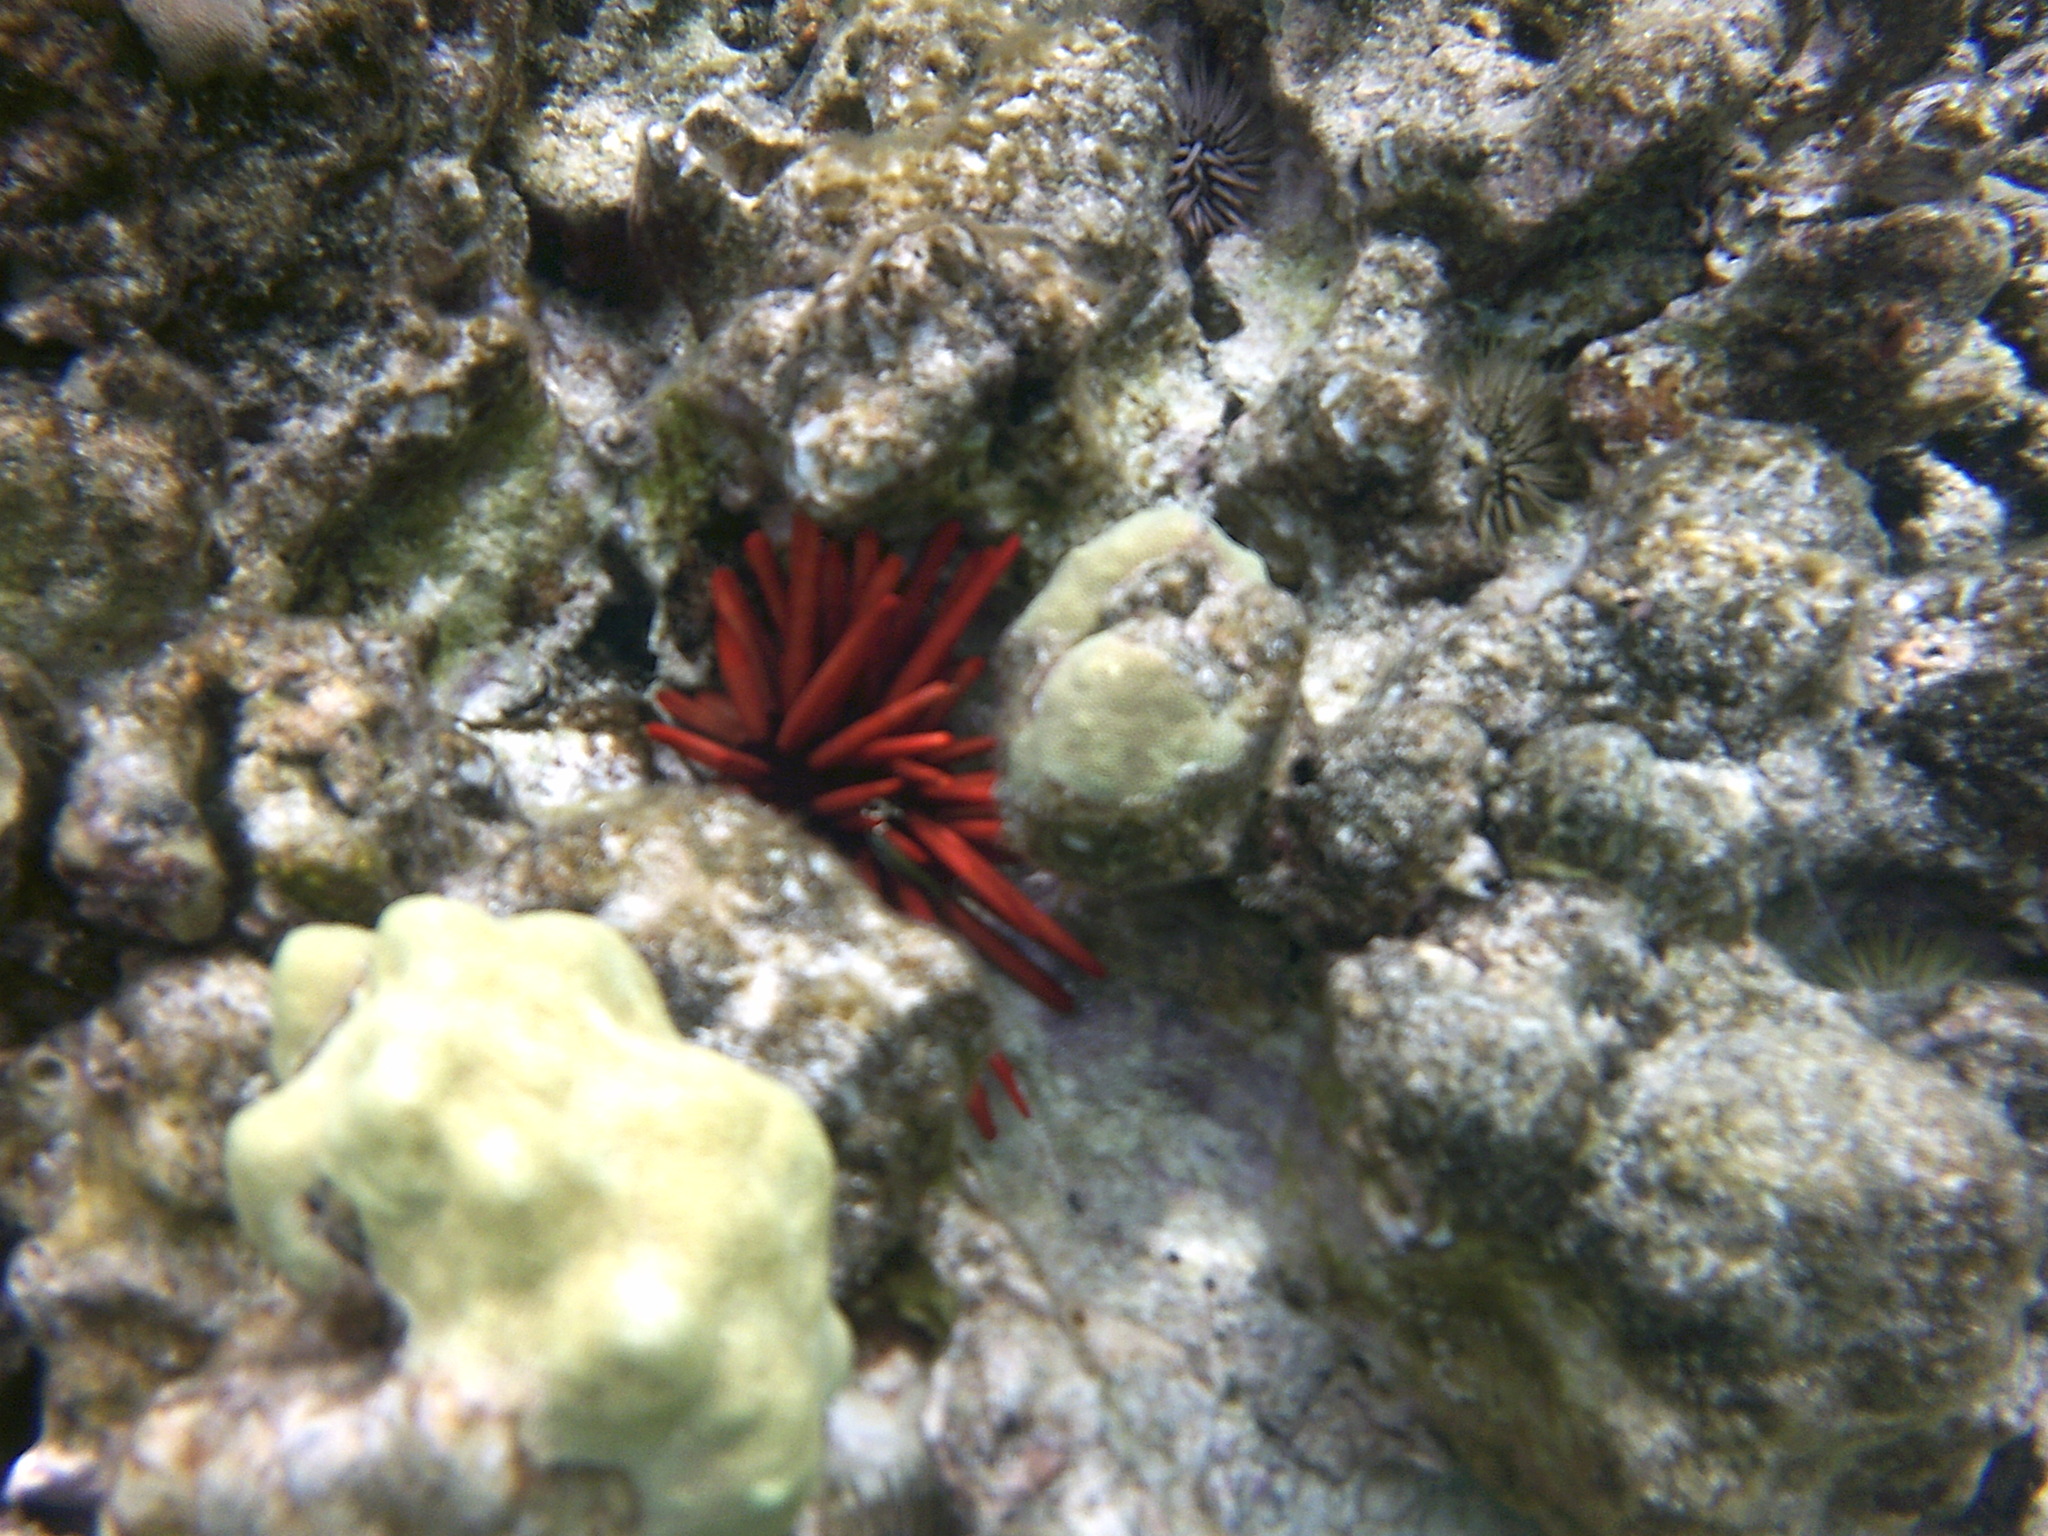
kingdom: Animalia
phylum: Echinodermata
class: Echinoidea
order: Camarodonta
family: Echinometridae
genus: Heterocentrotus
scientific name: Heterocentrotus mamillatus
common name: Slate pencil urchin
